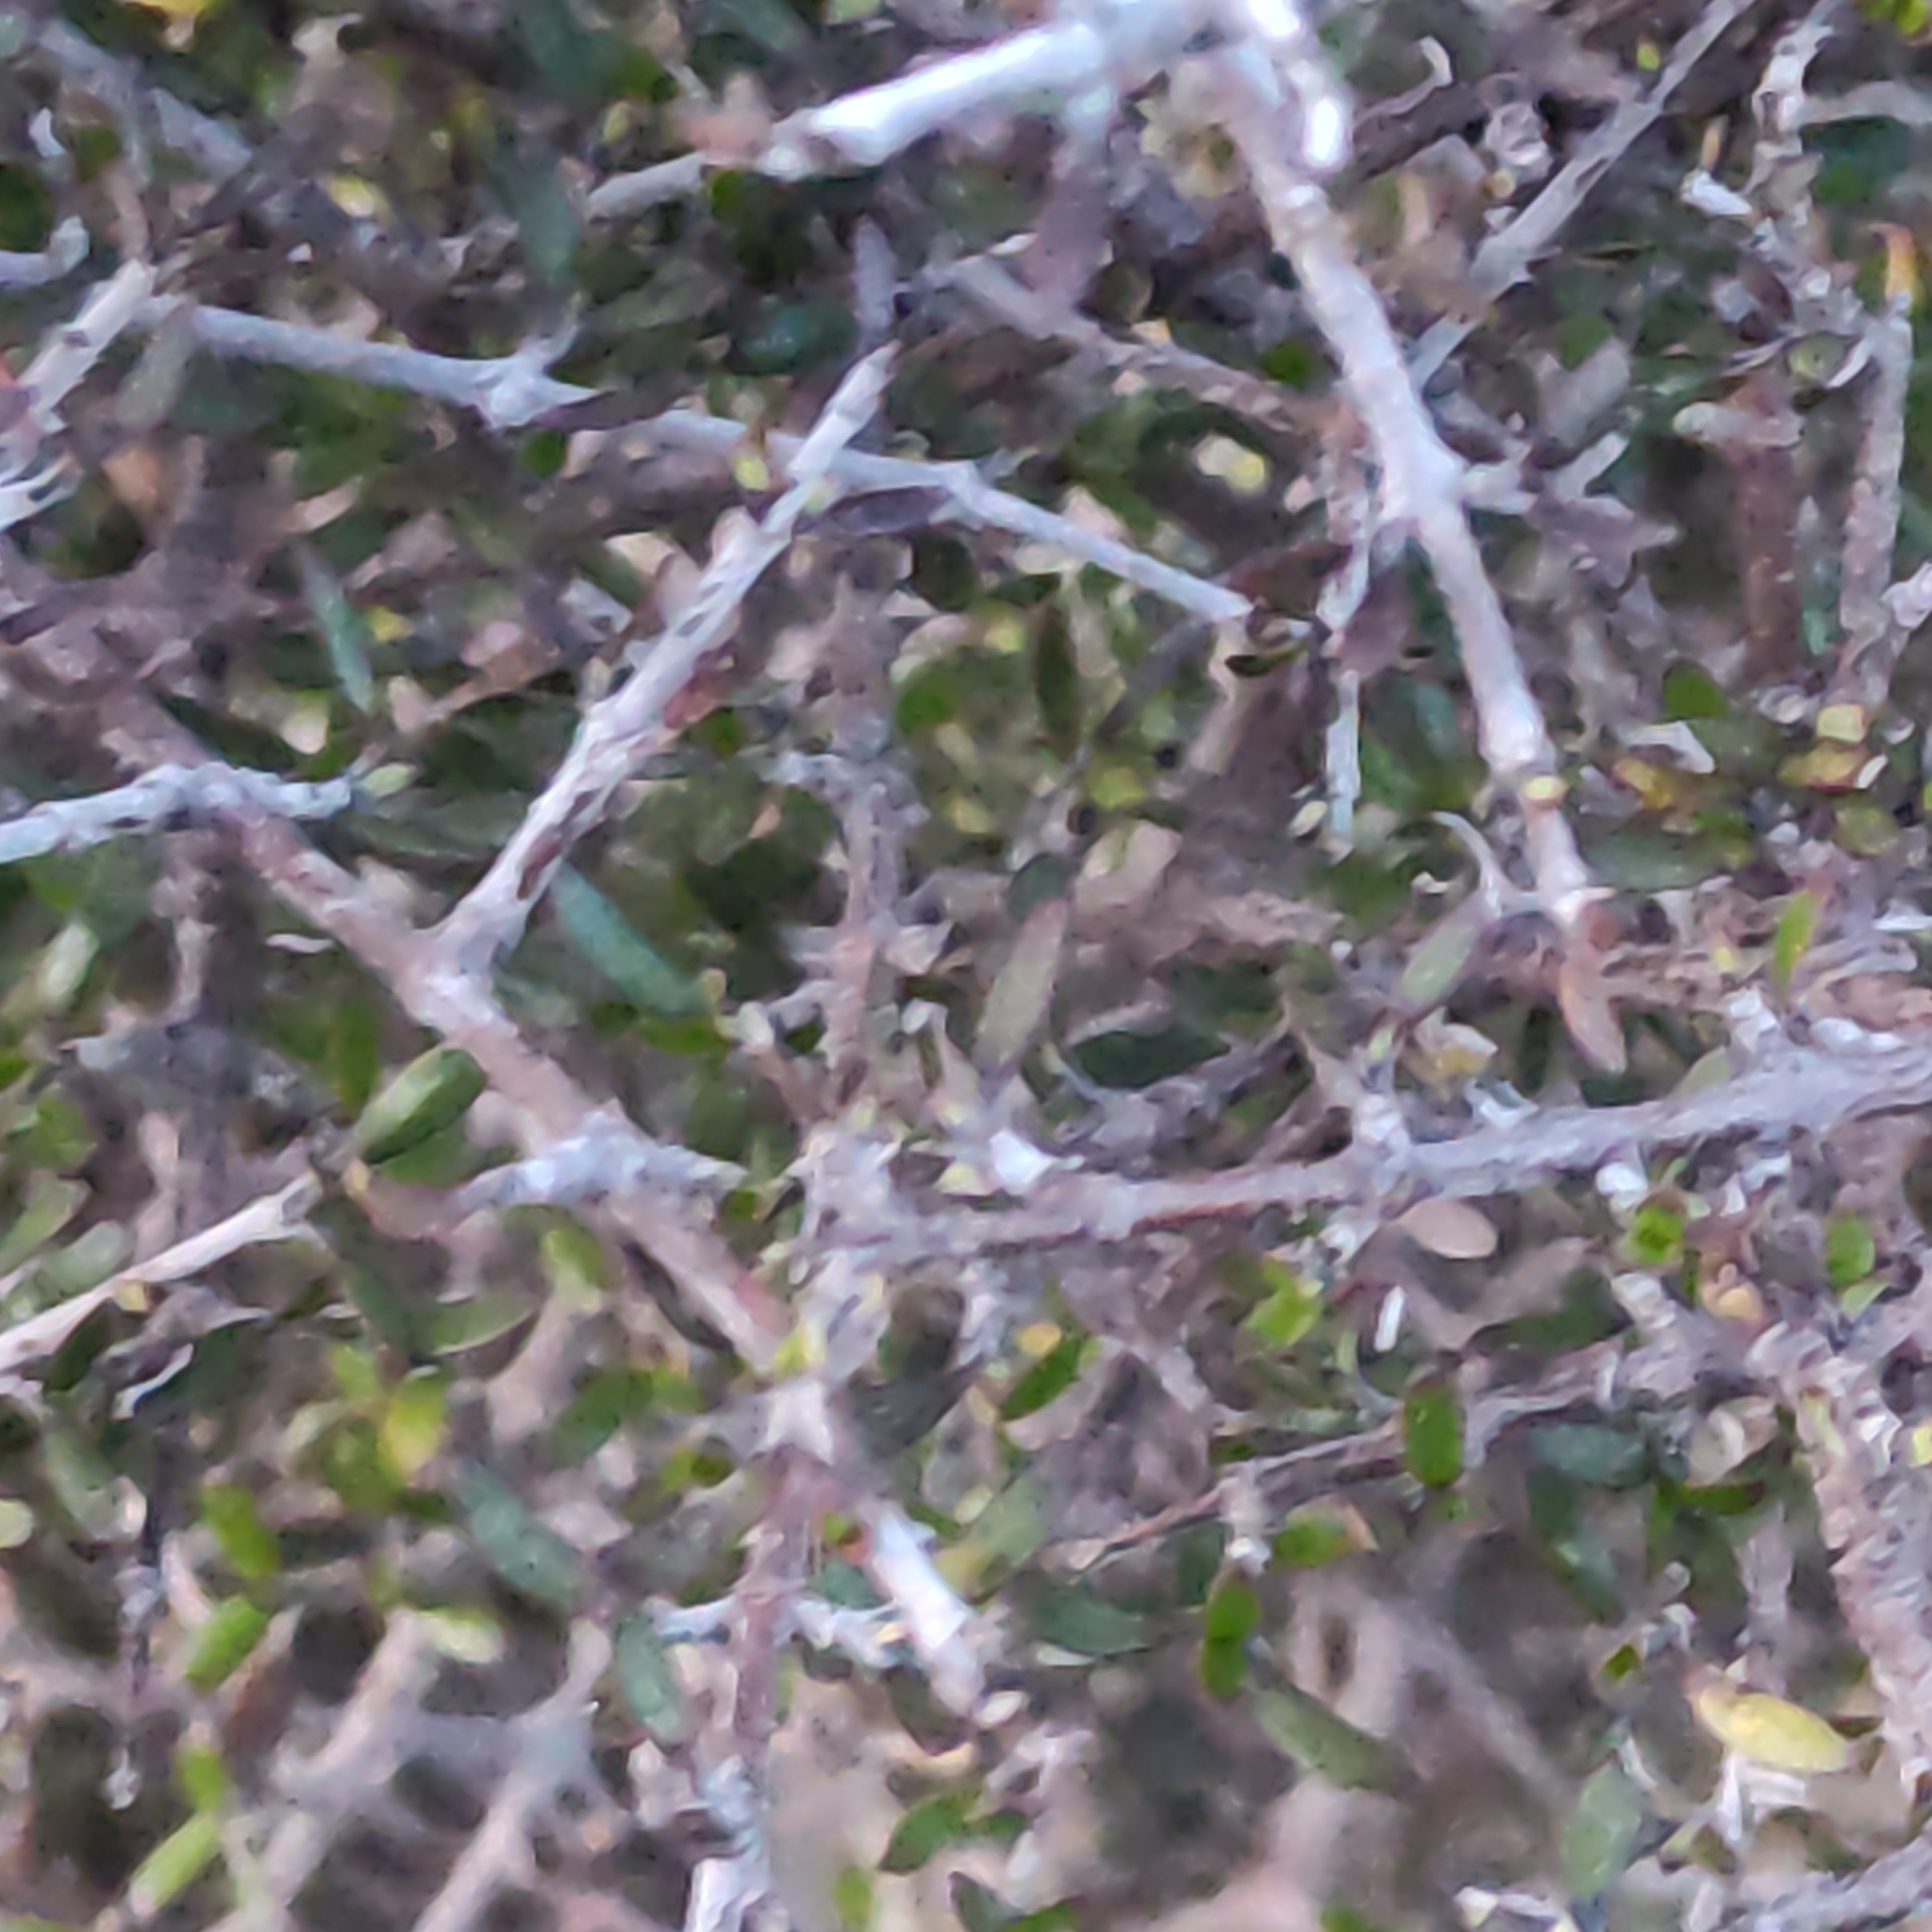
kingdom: Plantae
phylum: Tracheophyta
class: Magnoliopsida
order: Gentianales
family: Rubiaceae
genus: Coprosma
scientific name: Coprosma propinqua
